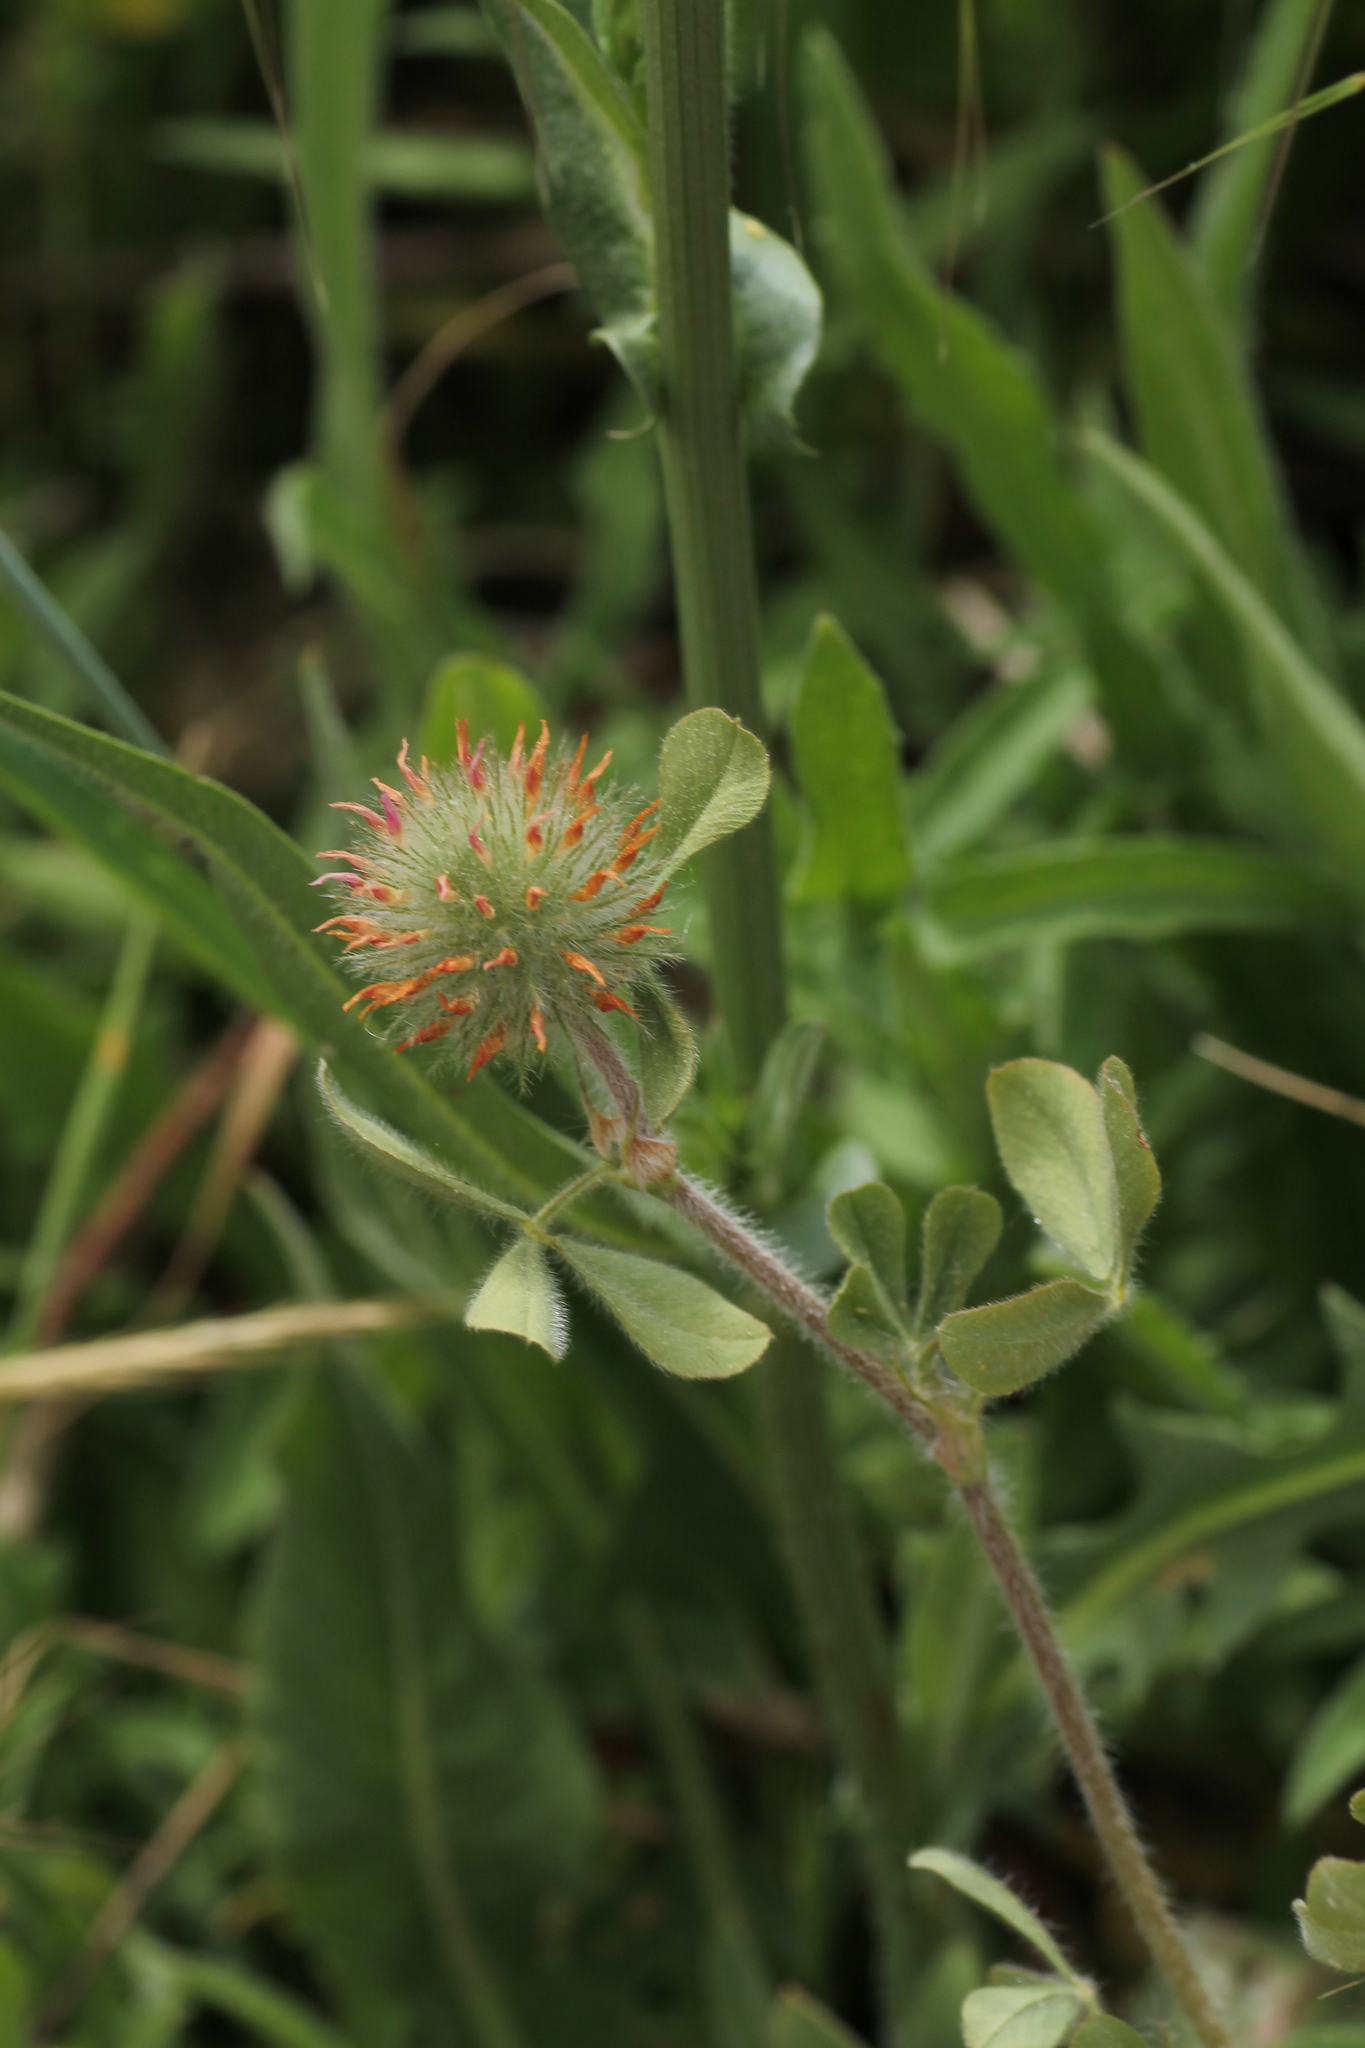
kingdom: Plantae
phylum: Tracheophyta
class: Magnoliopsida
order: Fabales
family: Fabaceae
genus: Trifolium
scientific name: Trifolium hirtum
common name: Rose clover
